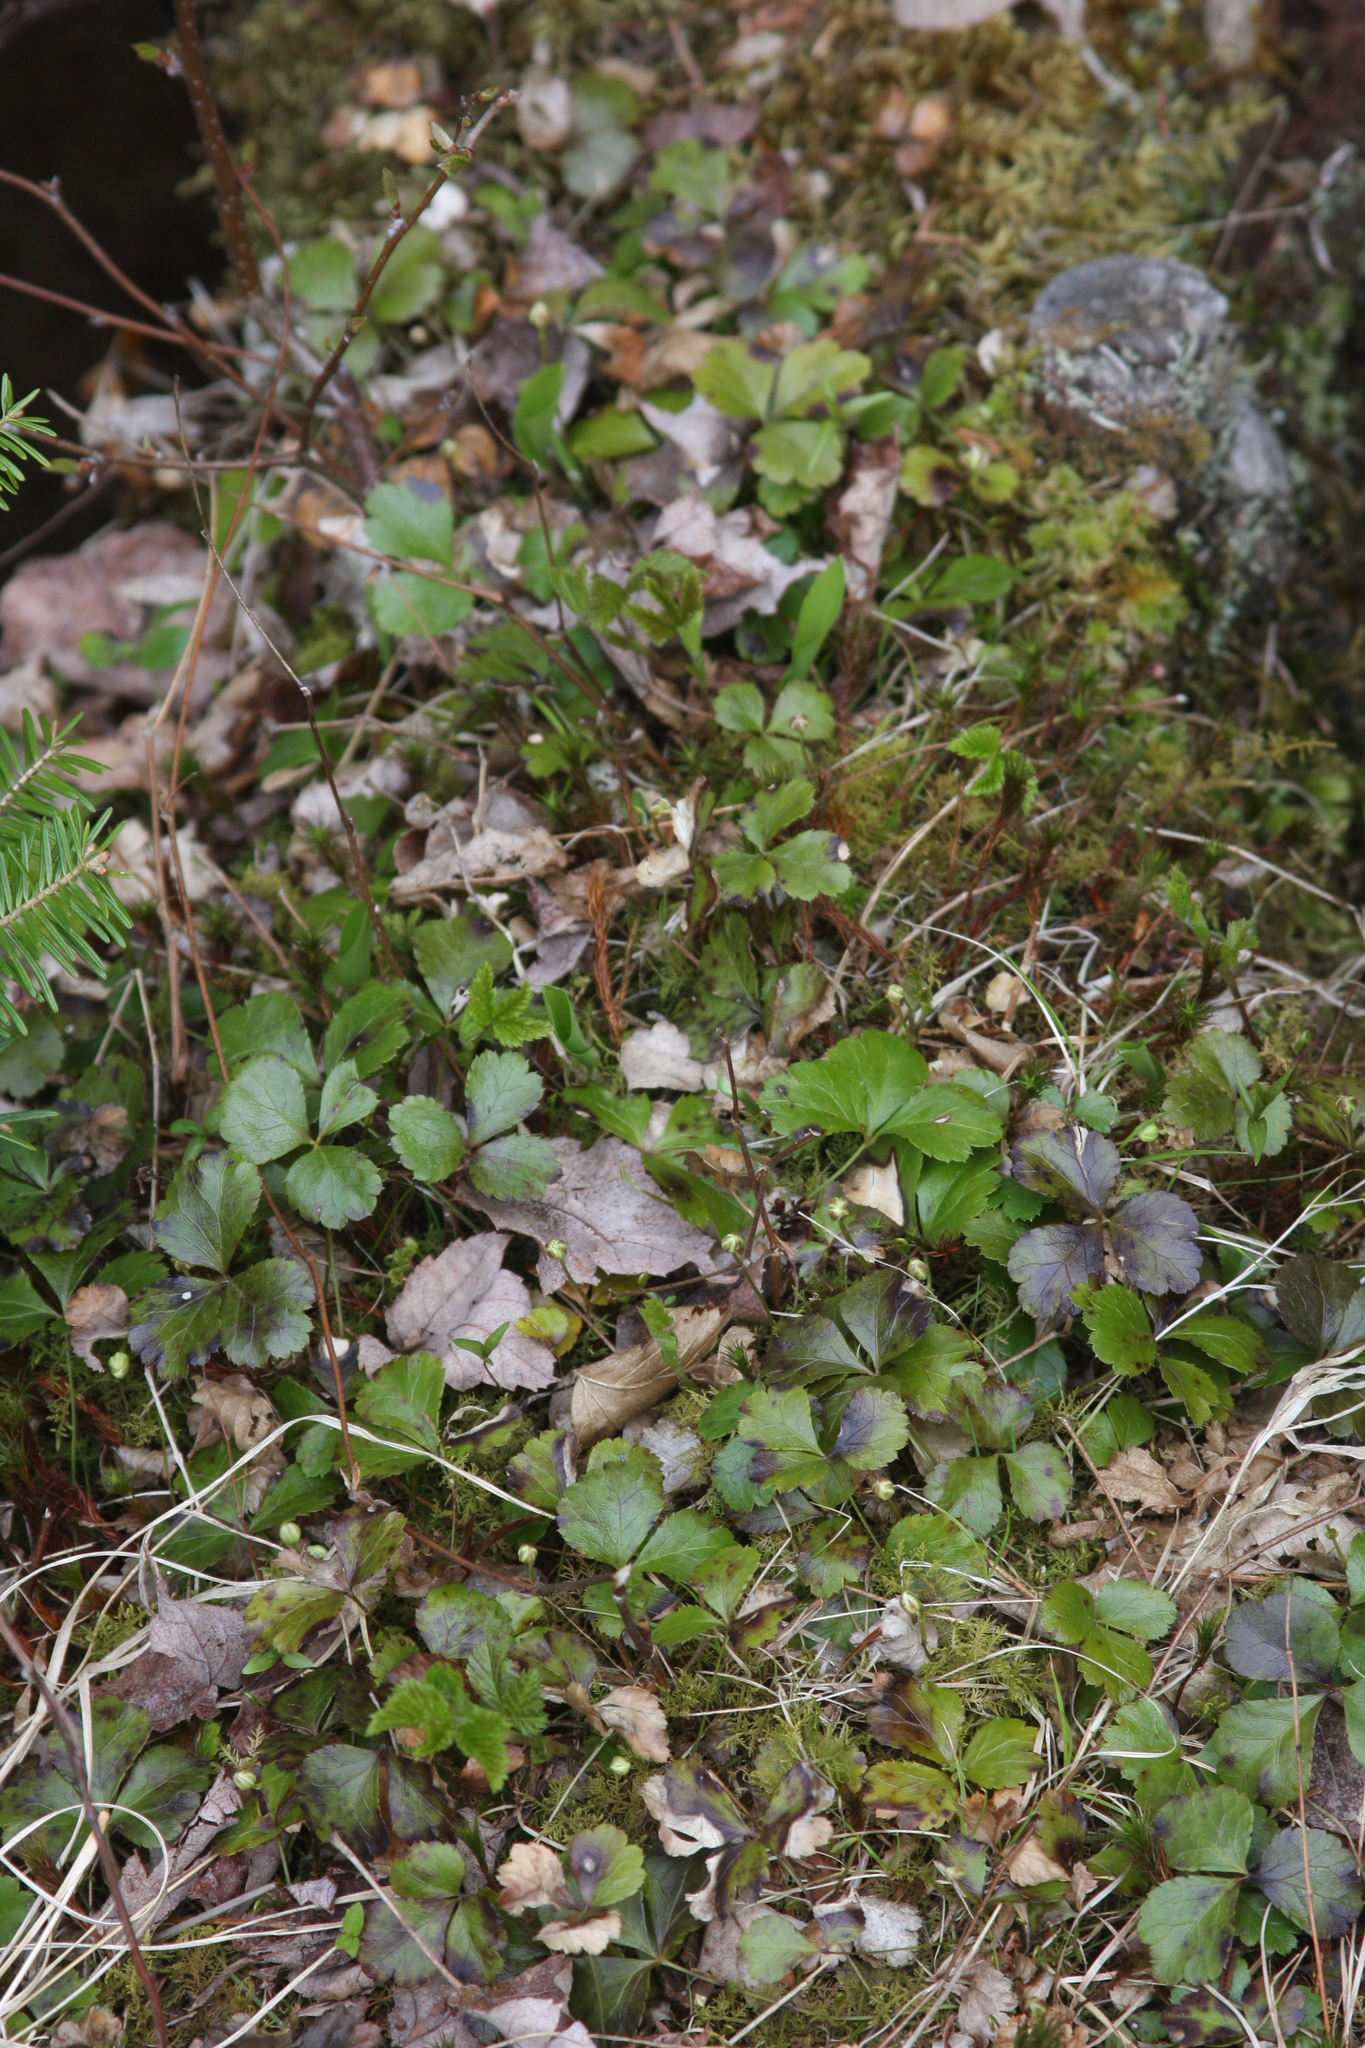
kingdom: Plantae
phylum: Tracheophyta
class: Magnoliopsida
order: Ranunculales
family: Ranunculaceae
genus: Coptis
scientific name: Coptis trifolia
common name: Canker-root
